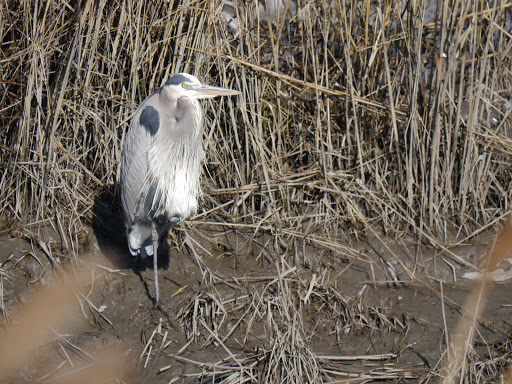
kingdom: Animalia
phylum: Chordata
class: Aves
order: Pelecaniformes
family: Ardeidae
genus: Ardea
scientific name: Ardea herodias
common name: Great blue heron
